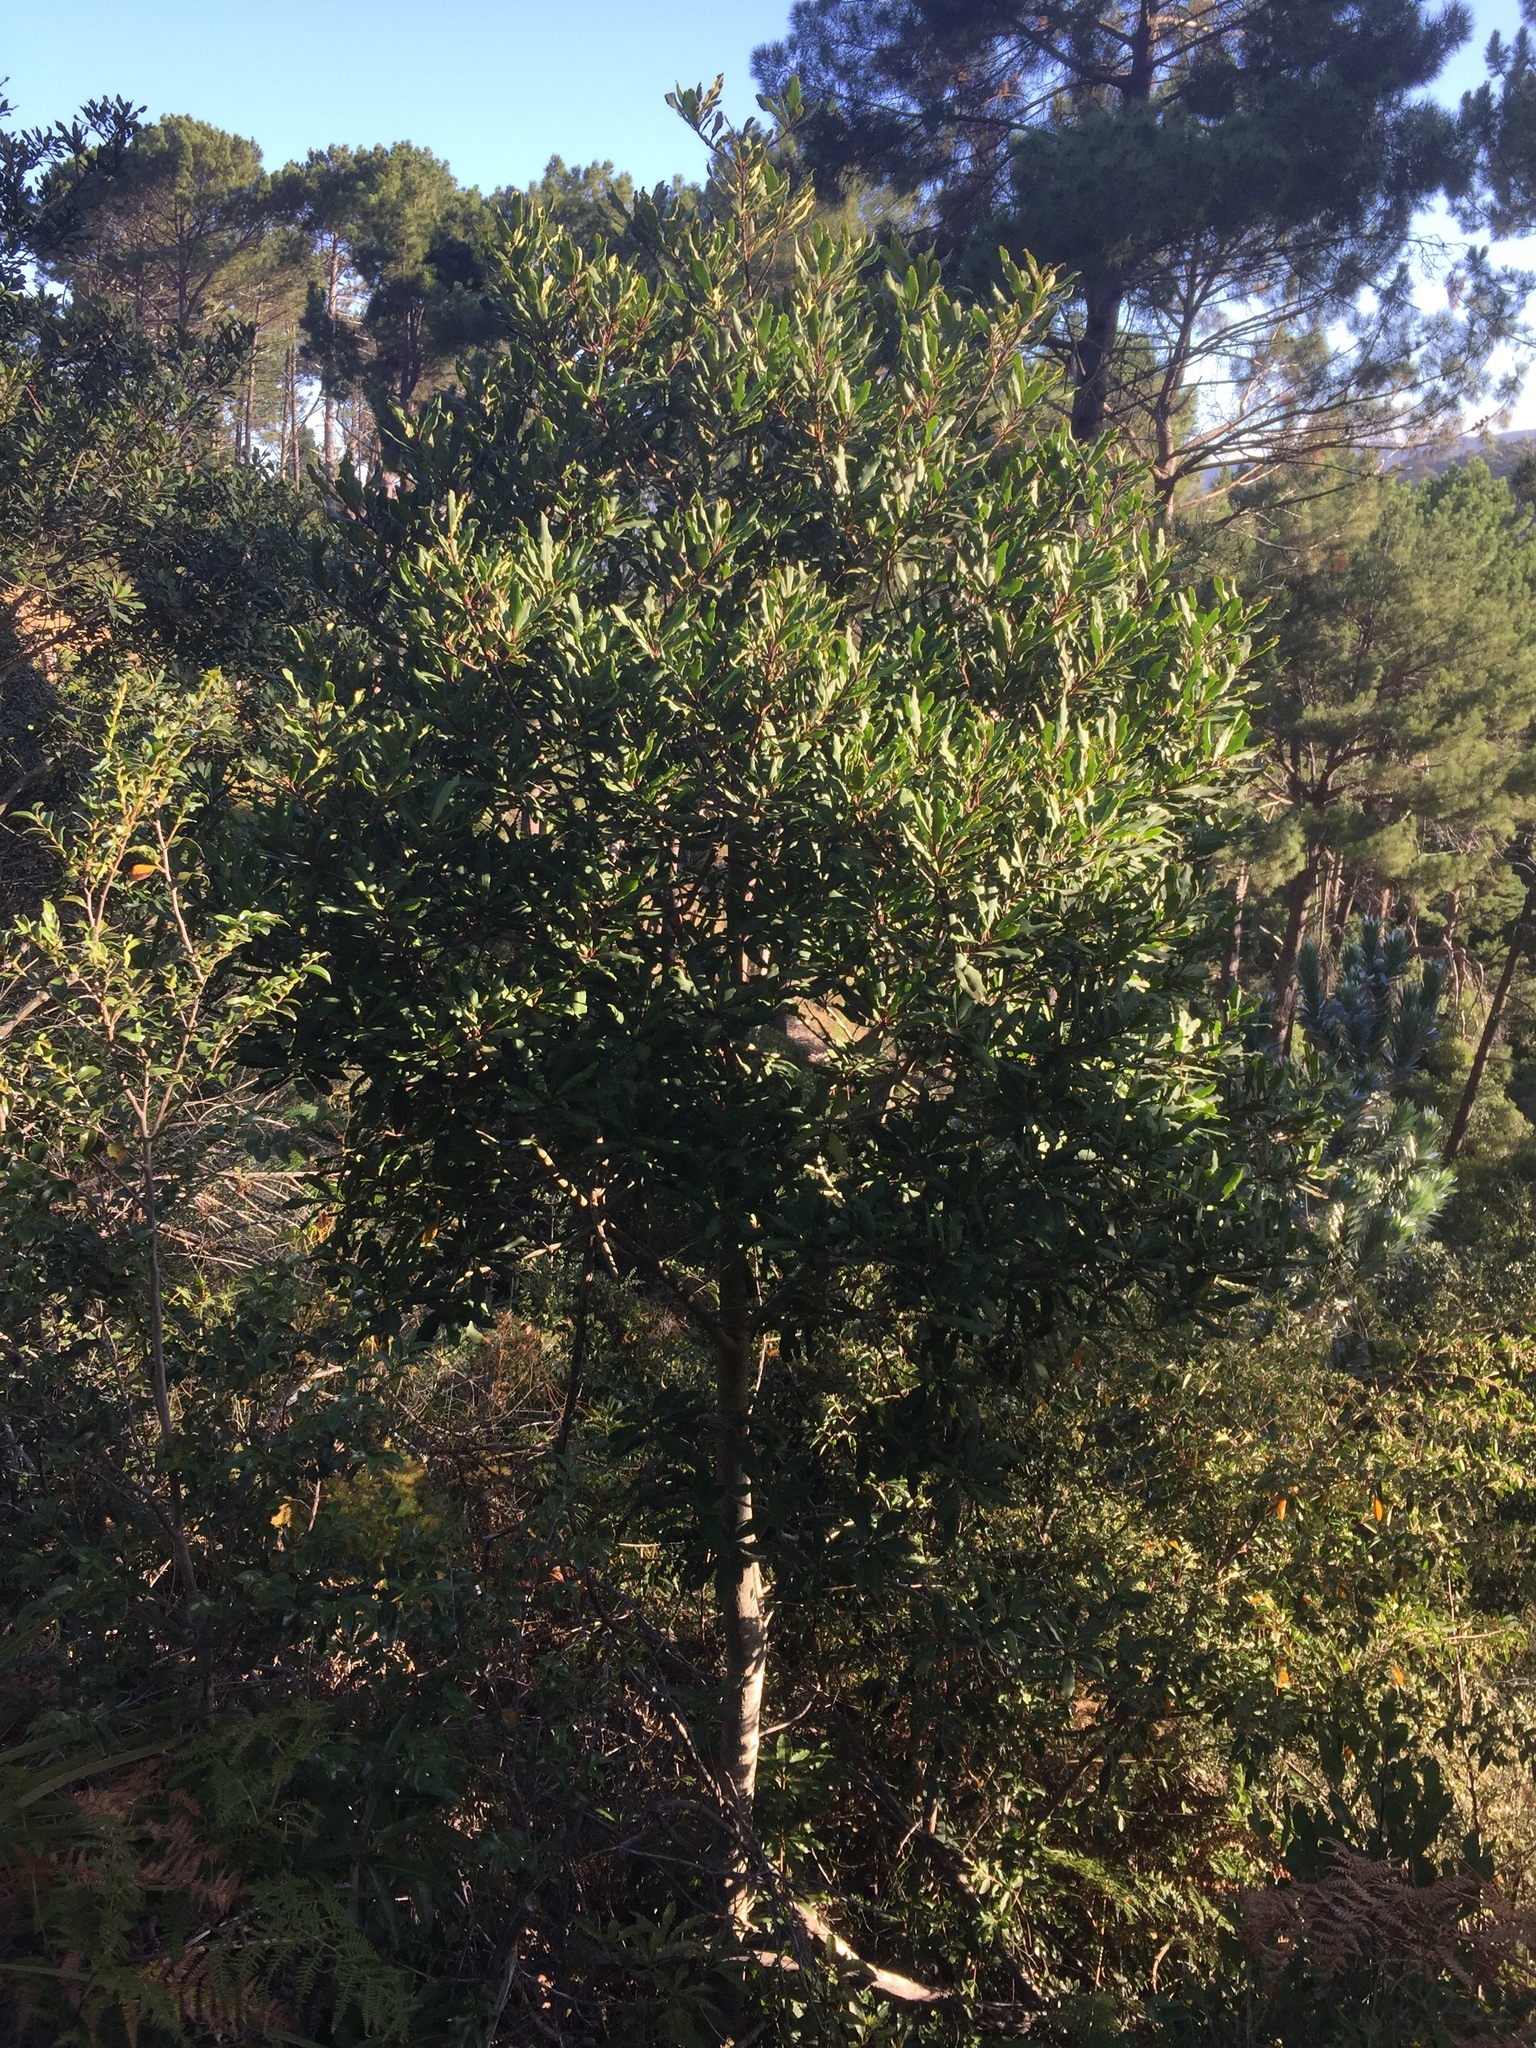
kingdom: Plantae
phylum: Tracheophyta
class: Magnoliopsida
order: Ericales
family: Primulaceae
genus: Myrsine
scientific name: Myrsine melanophloeos
